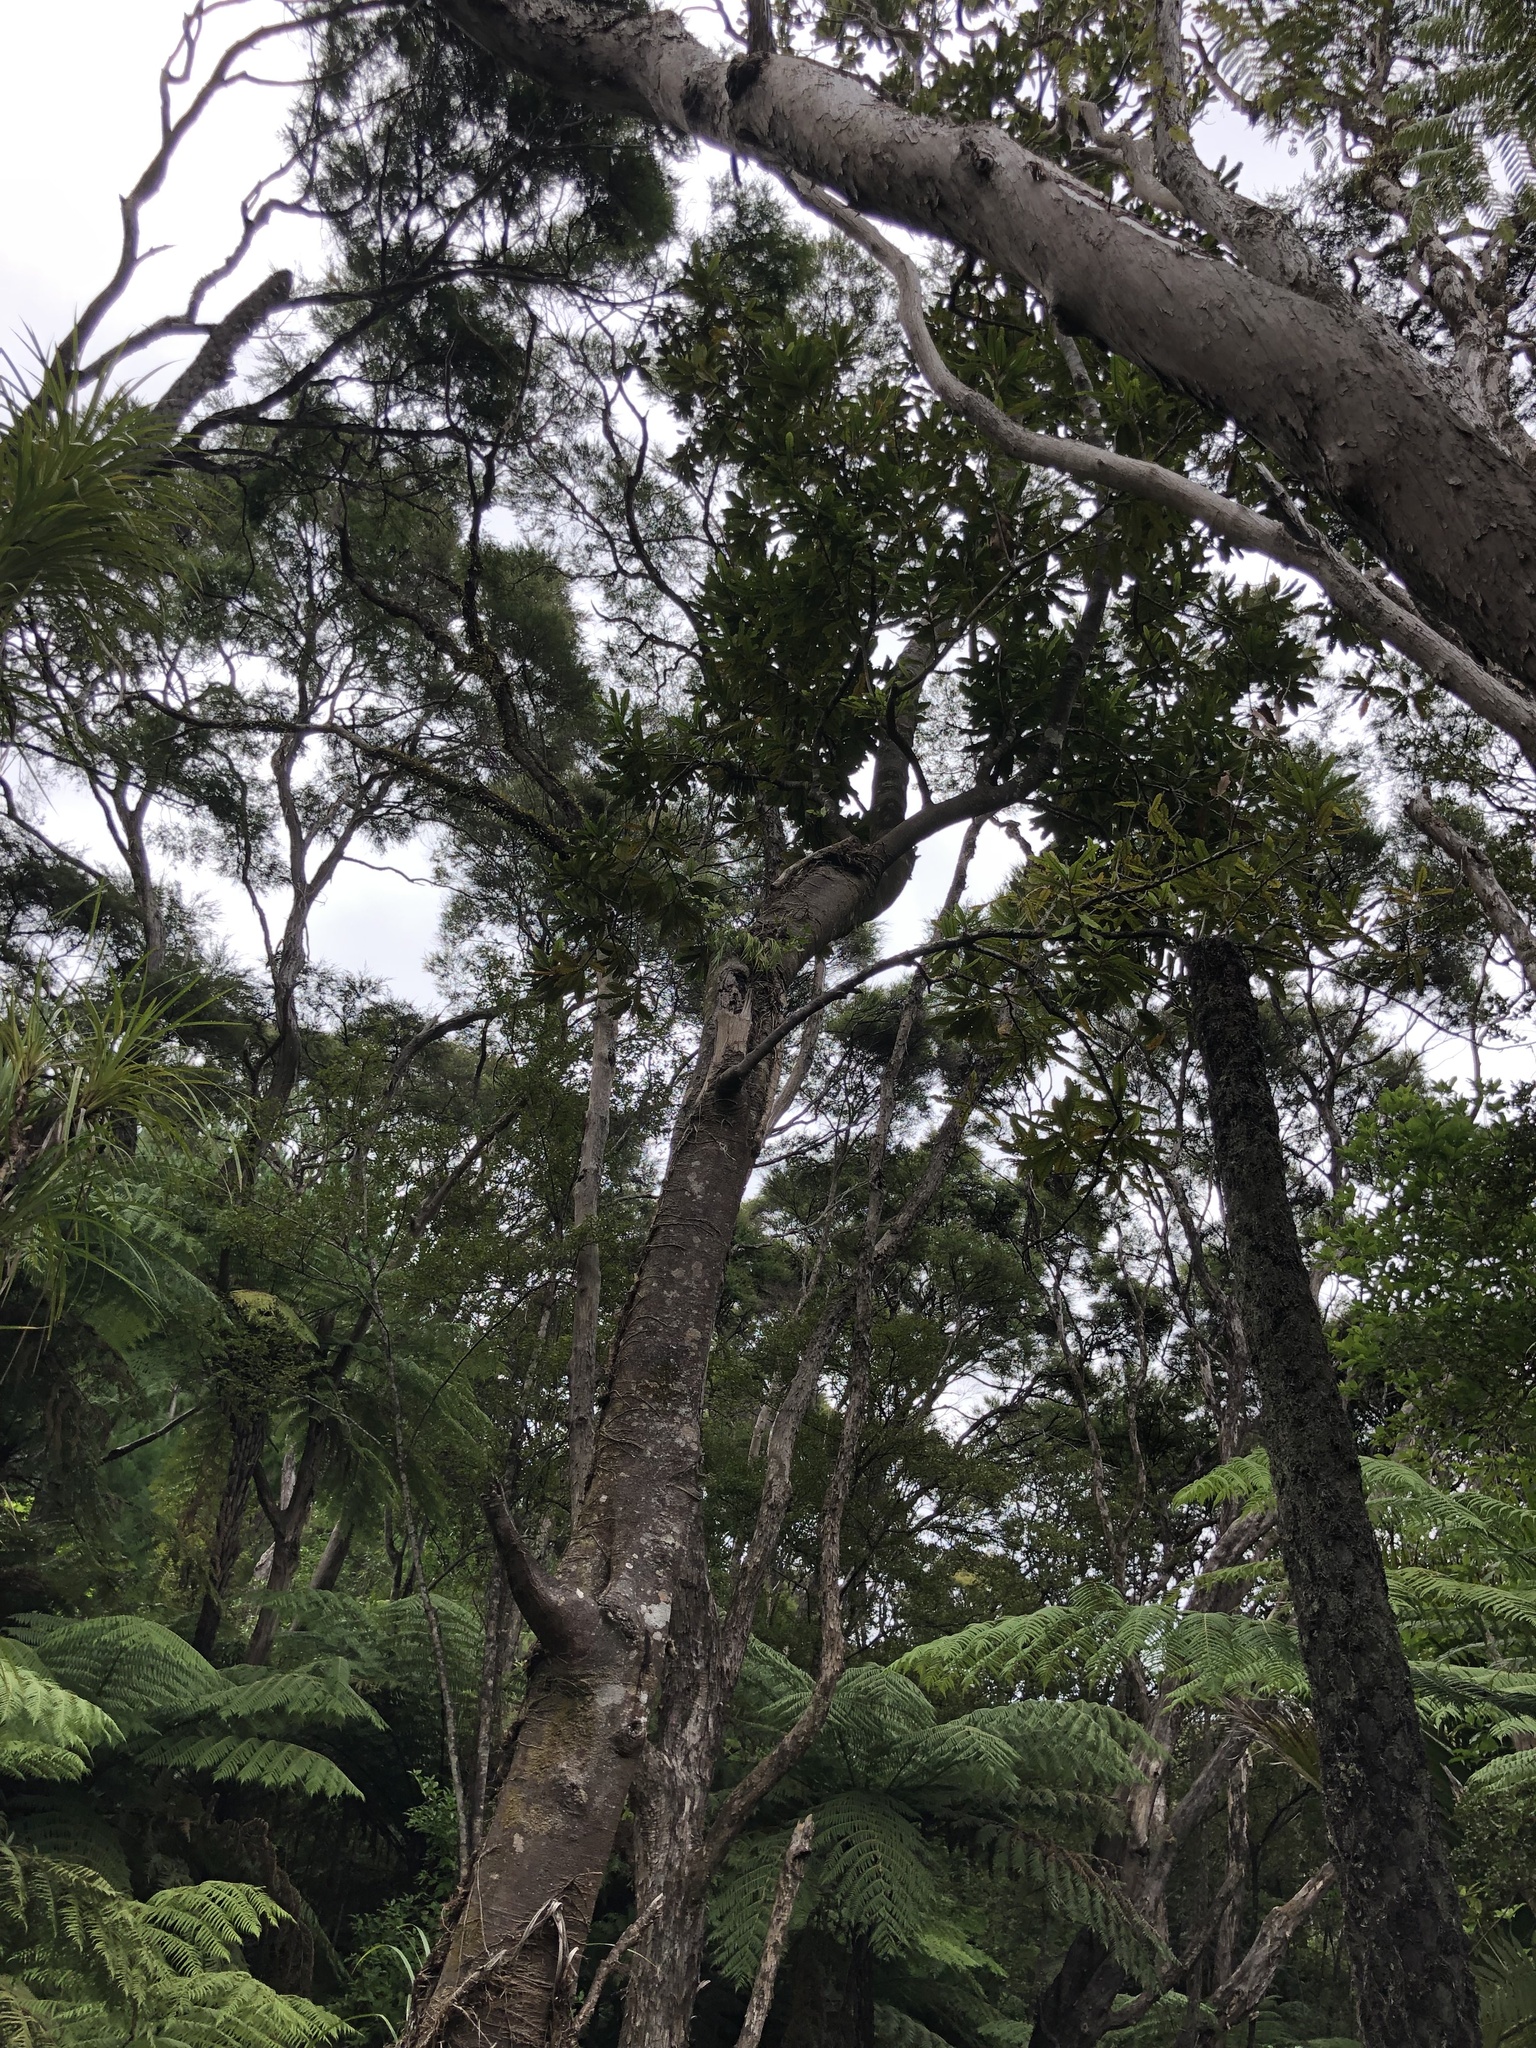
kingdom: Plantae
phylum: Tracheophyta
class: Magnoliopsida
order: Proteales
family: Proteaceae
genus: Knightia
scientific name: Knightia excelsa
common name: New zealand-honeysuckle
